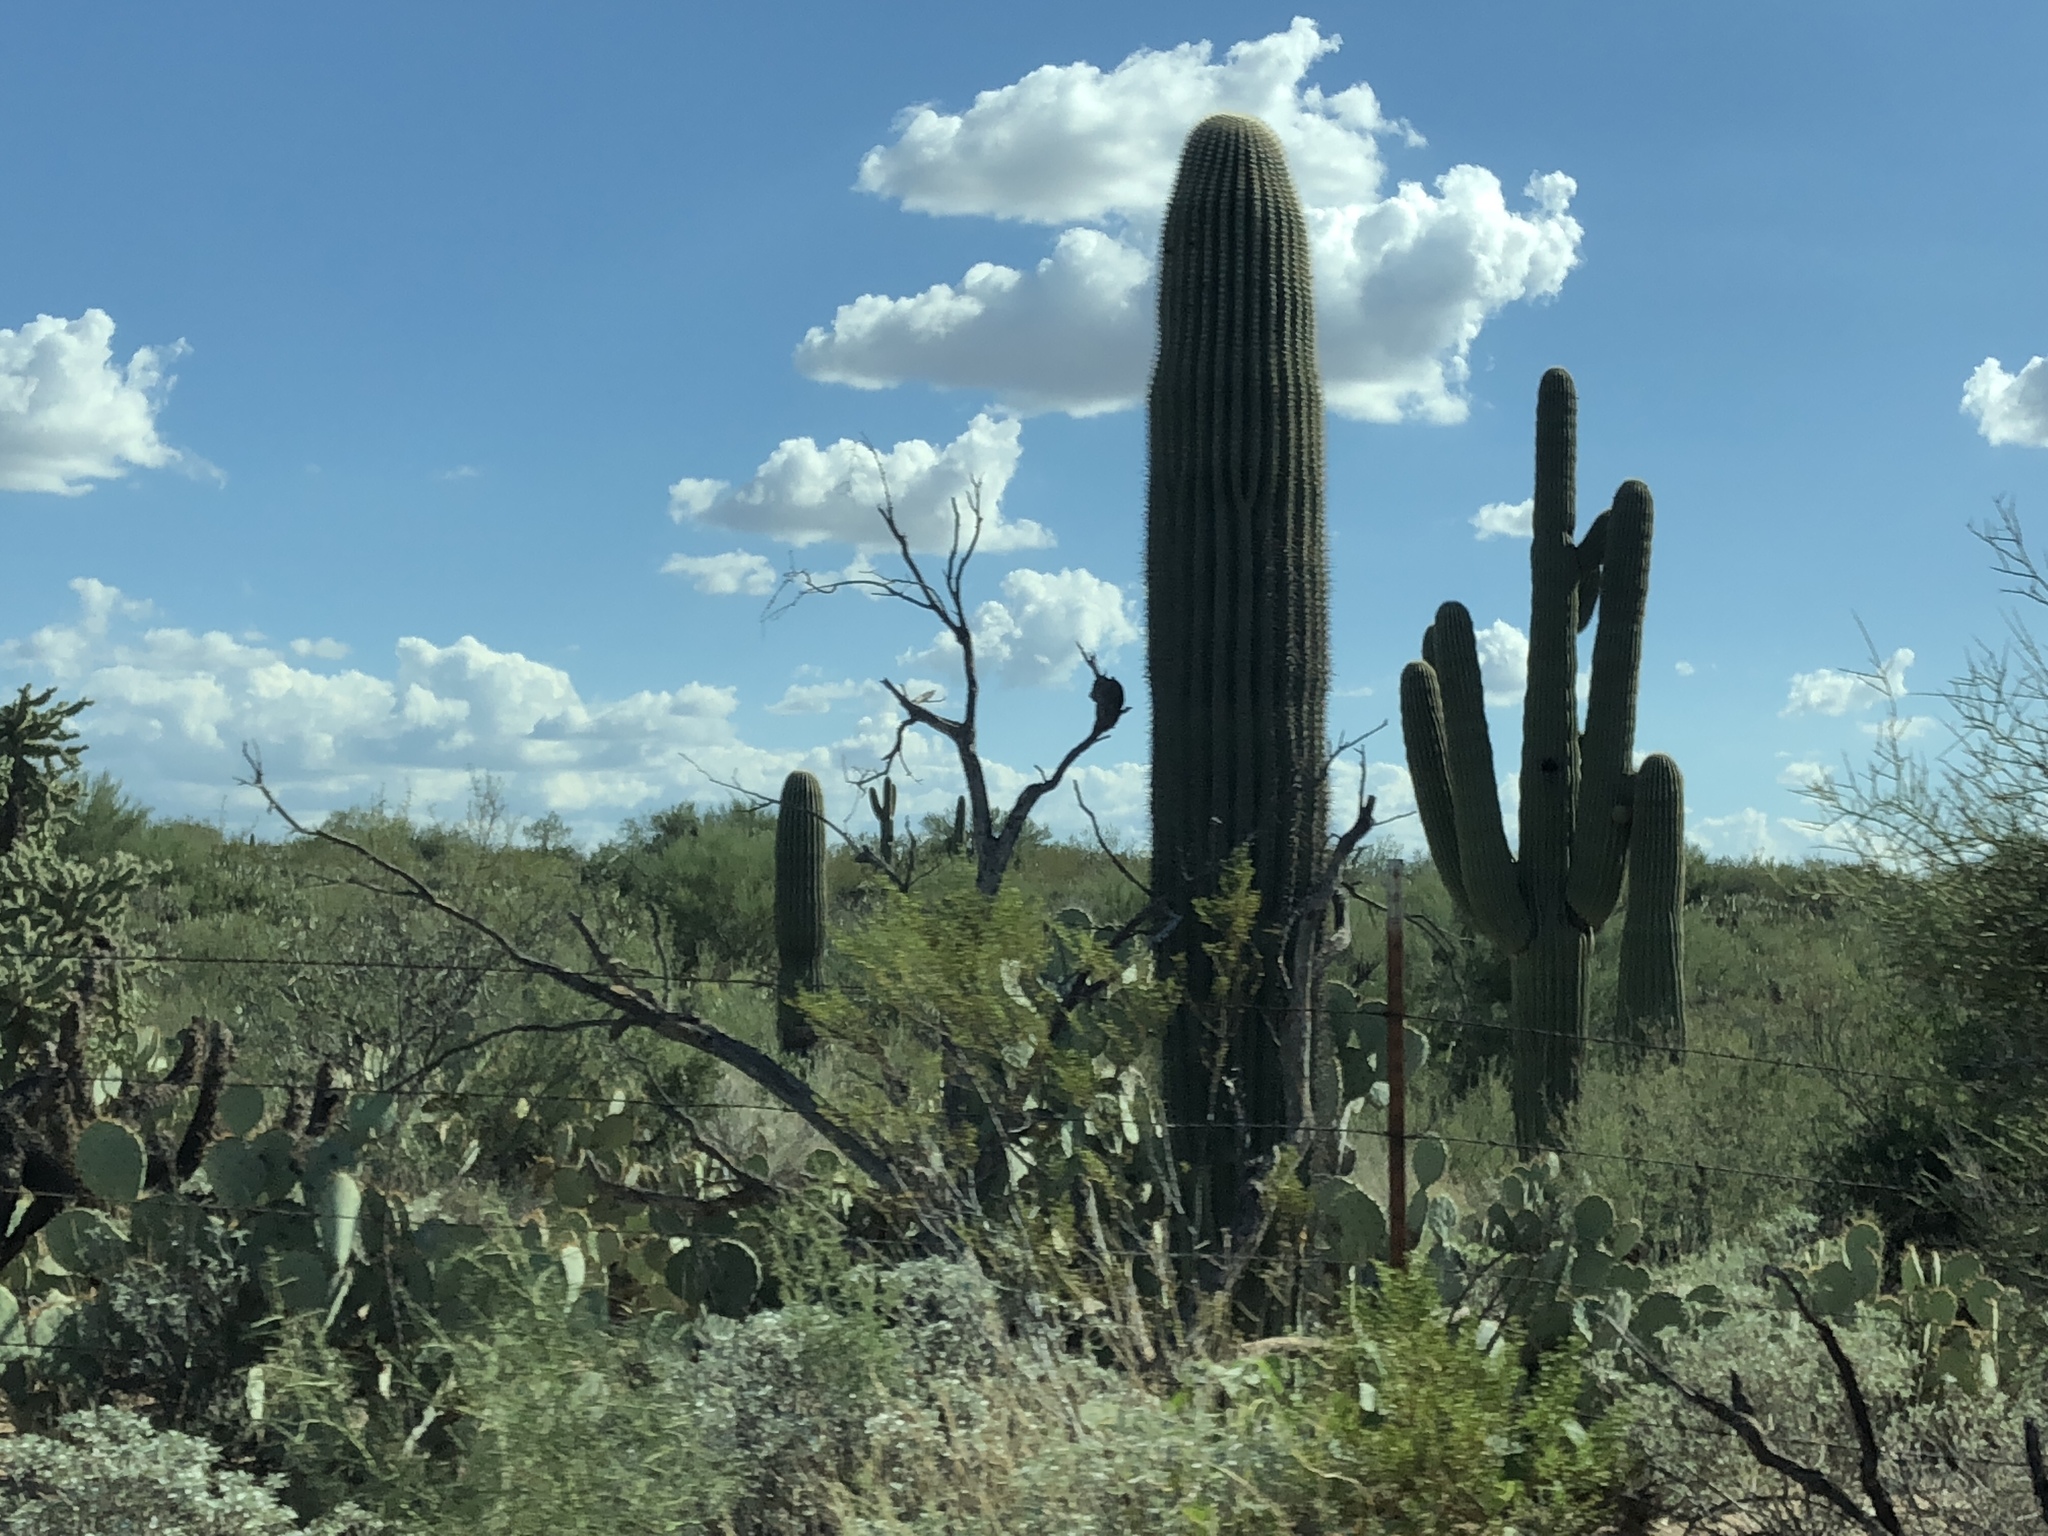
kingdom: Plantae
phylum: Tracheophyta
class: Magnoliopsida
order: Caryophyllales
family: Cactaceae
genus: Carnegiea
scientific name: Carnegiea gigantea
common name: Saguaro
